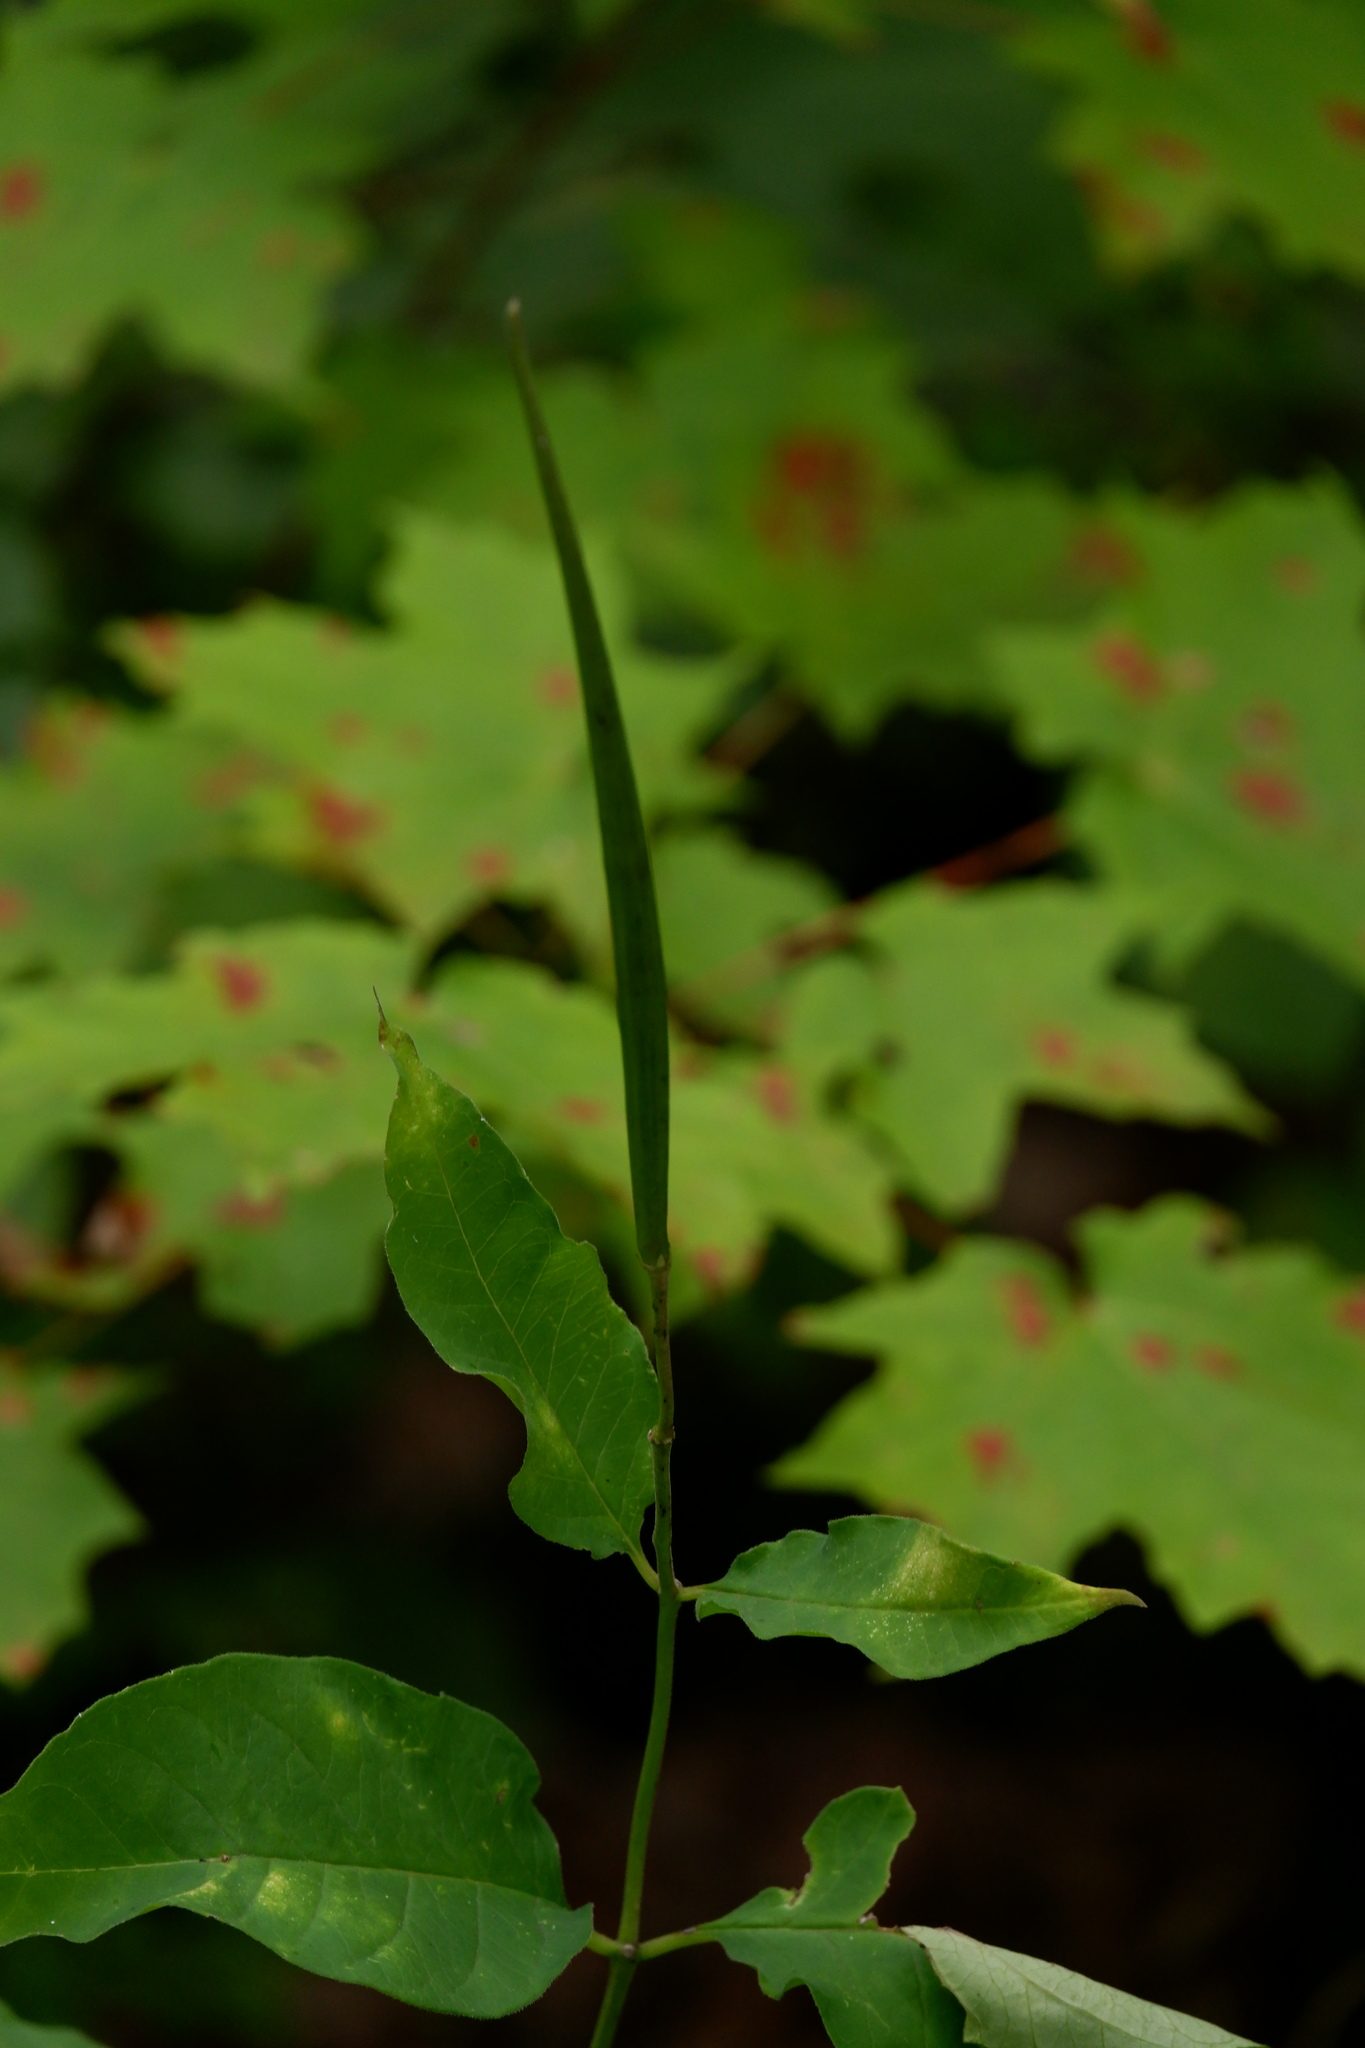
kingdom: Plantae
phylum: Tracheophyta
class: Magnoliopsida
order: Gentianales
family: Apocynaceae
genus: Asclepias
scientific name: Asclepias quadrifolia
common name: Whorled milkweed
